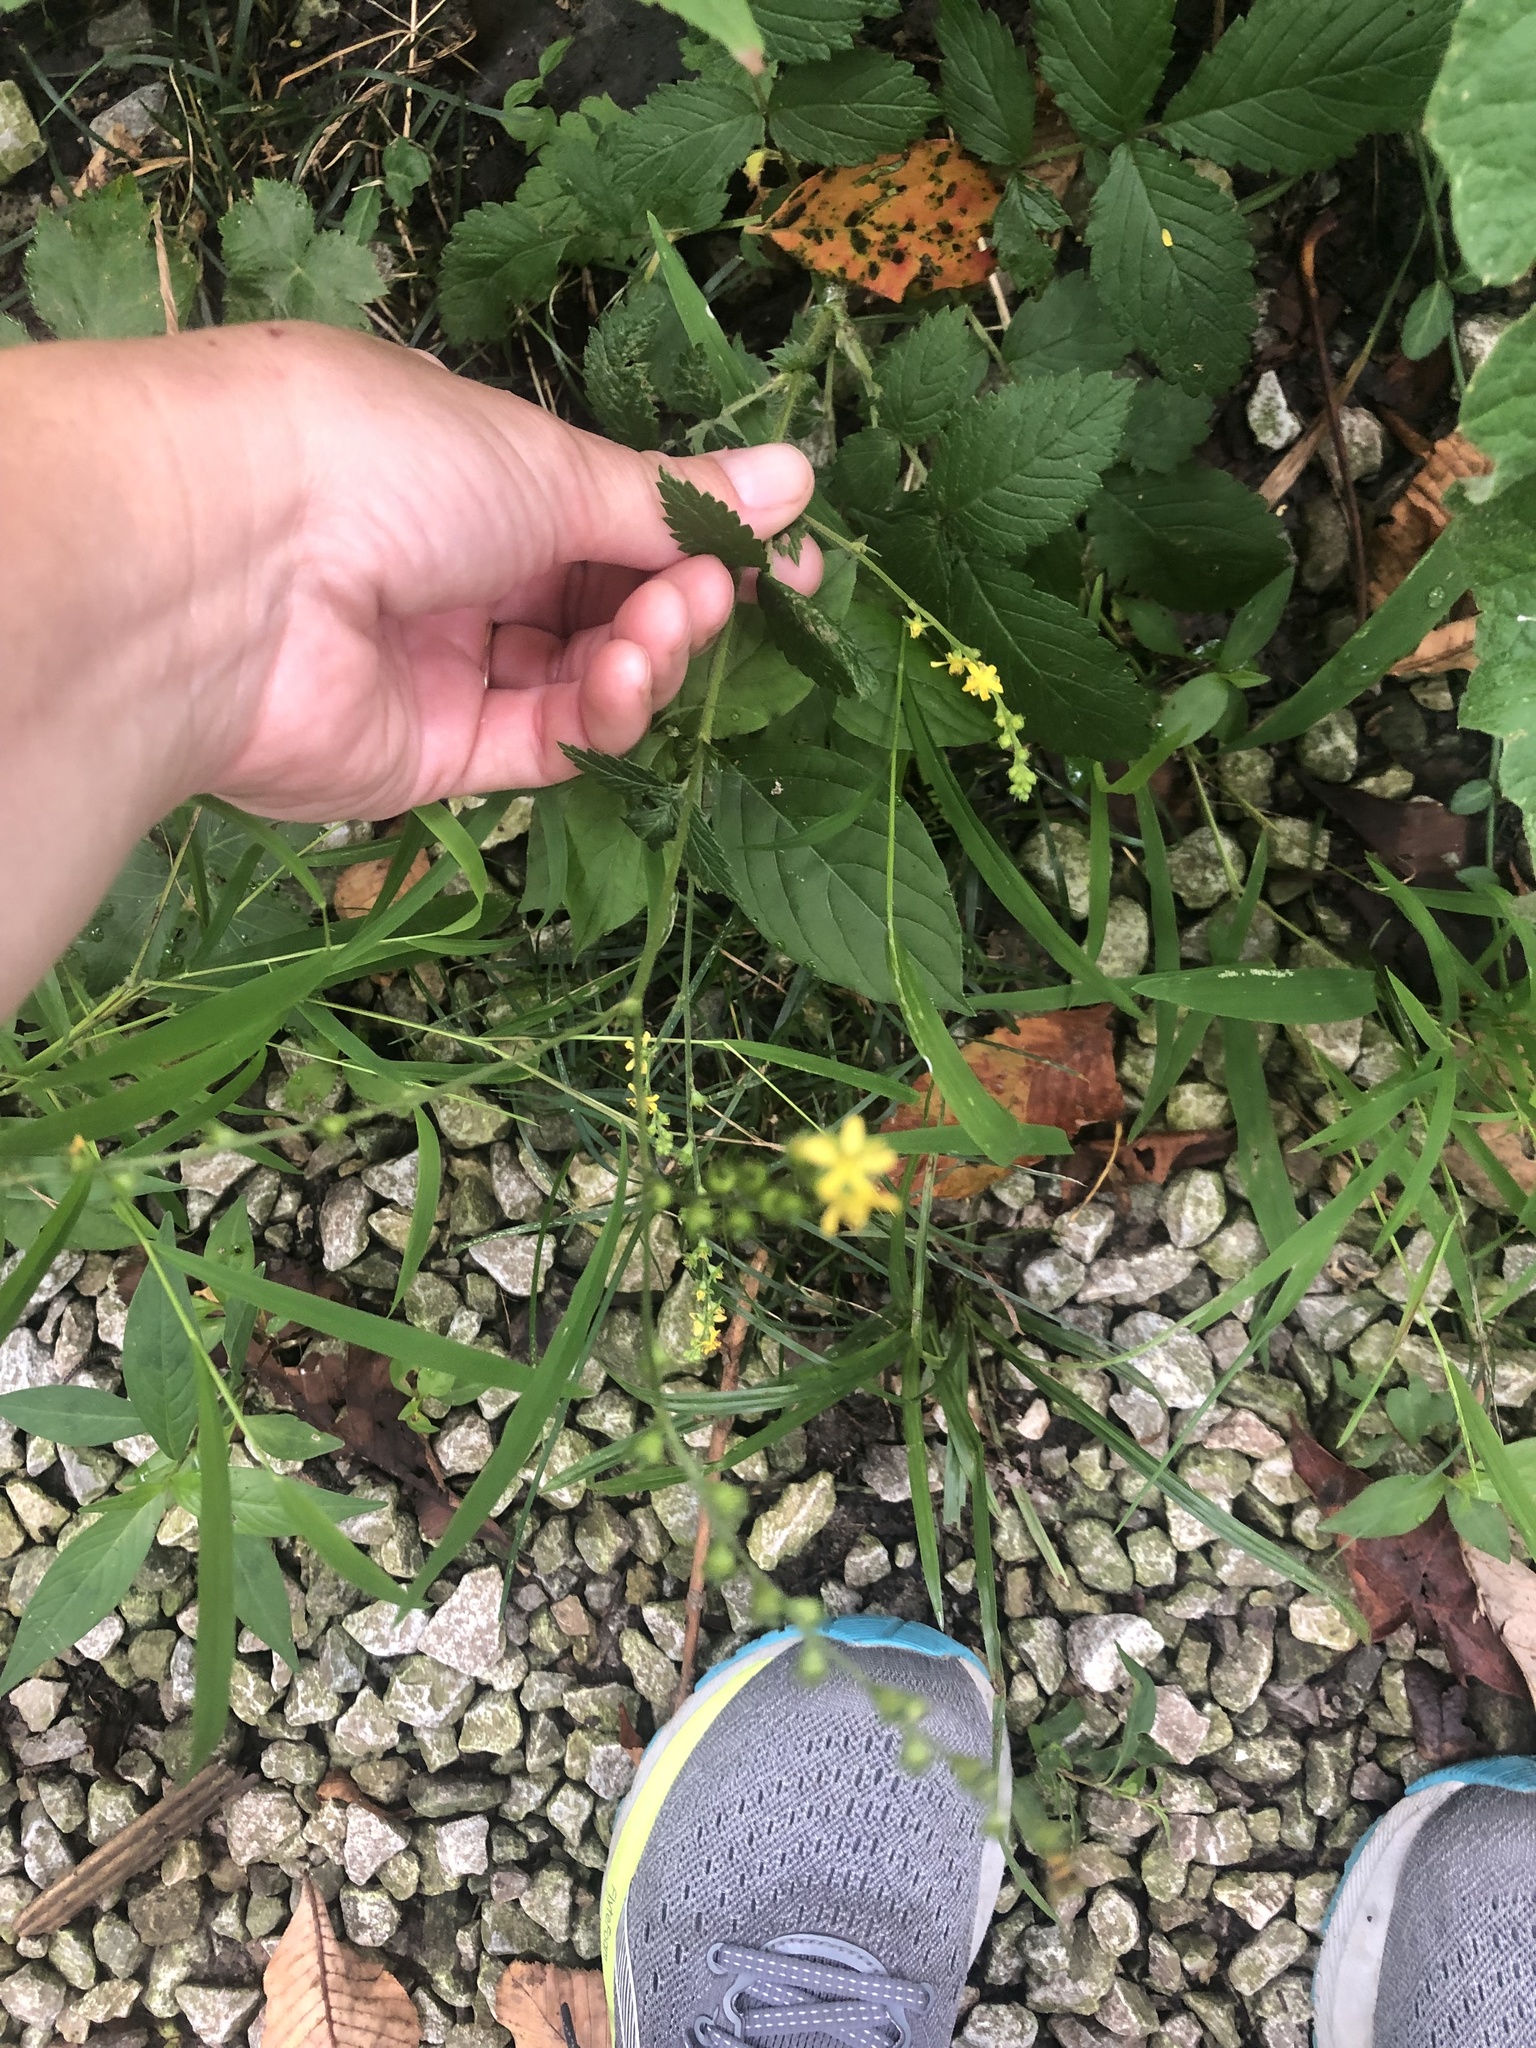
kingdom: Plantae
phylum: Tracheophyta
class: Magnoliopsida
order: Rosales
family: Rosaceae
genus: Agrimonia
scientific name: Agrimonia pubescens
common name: Downy agrimony
